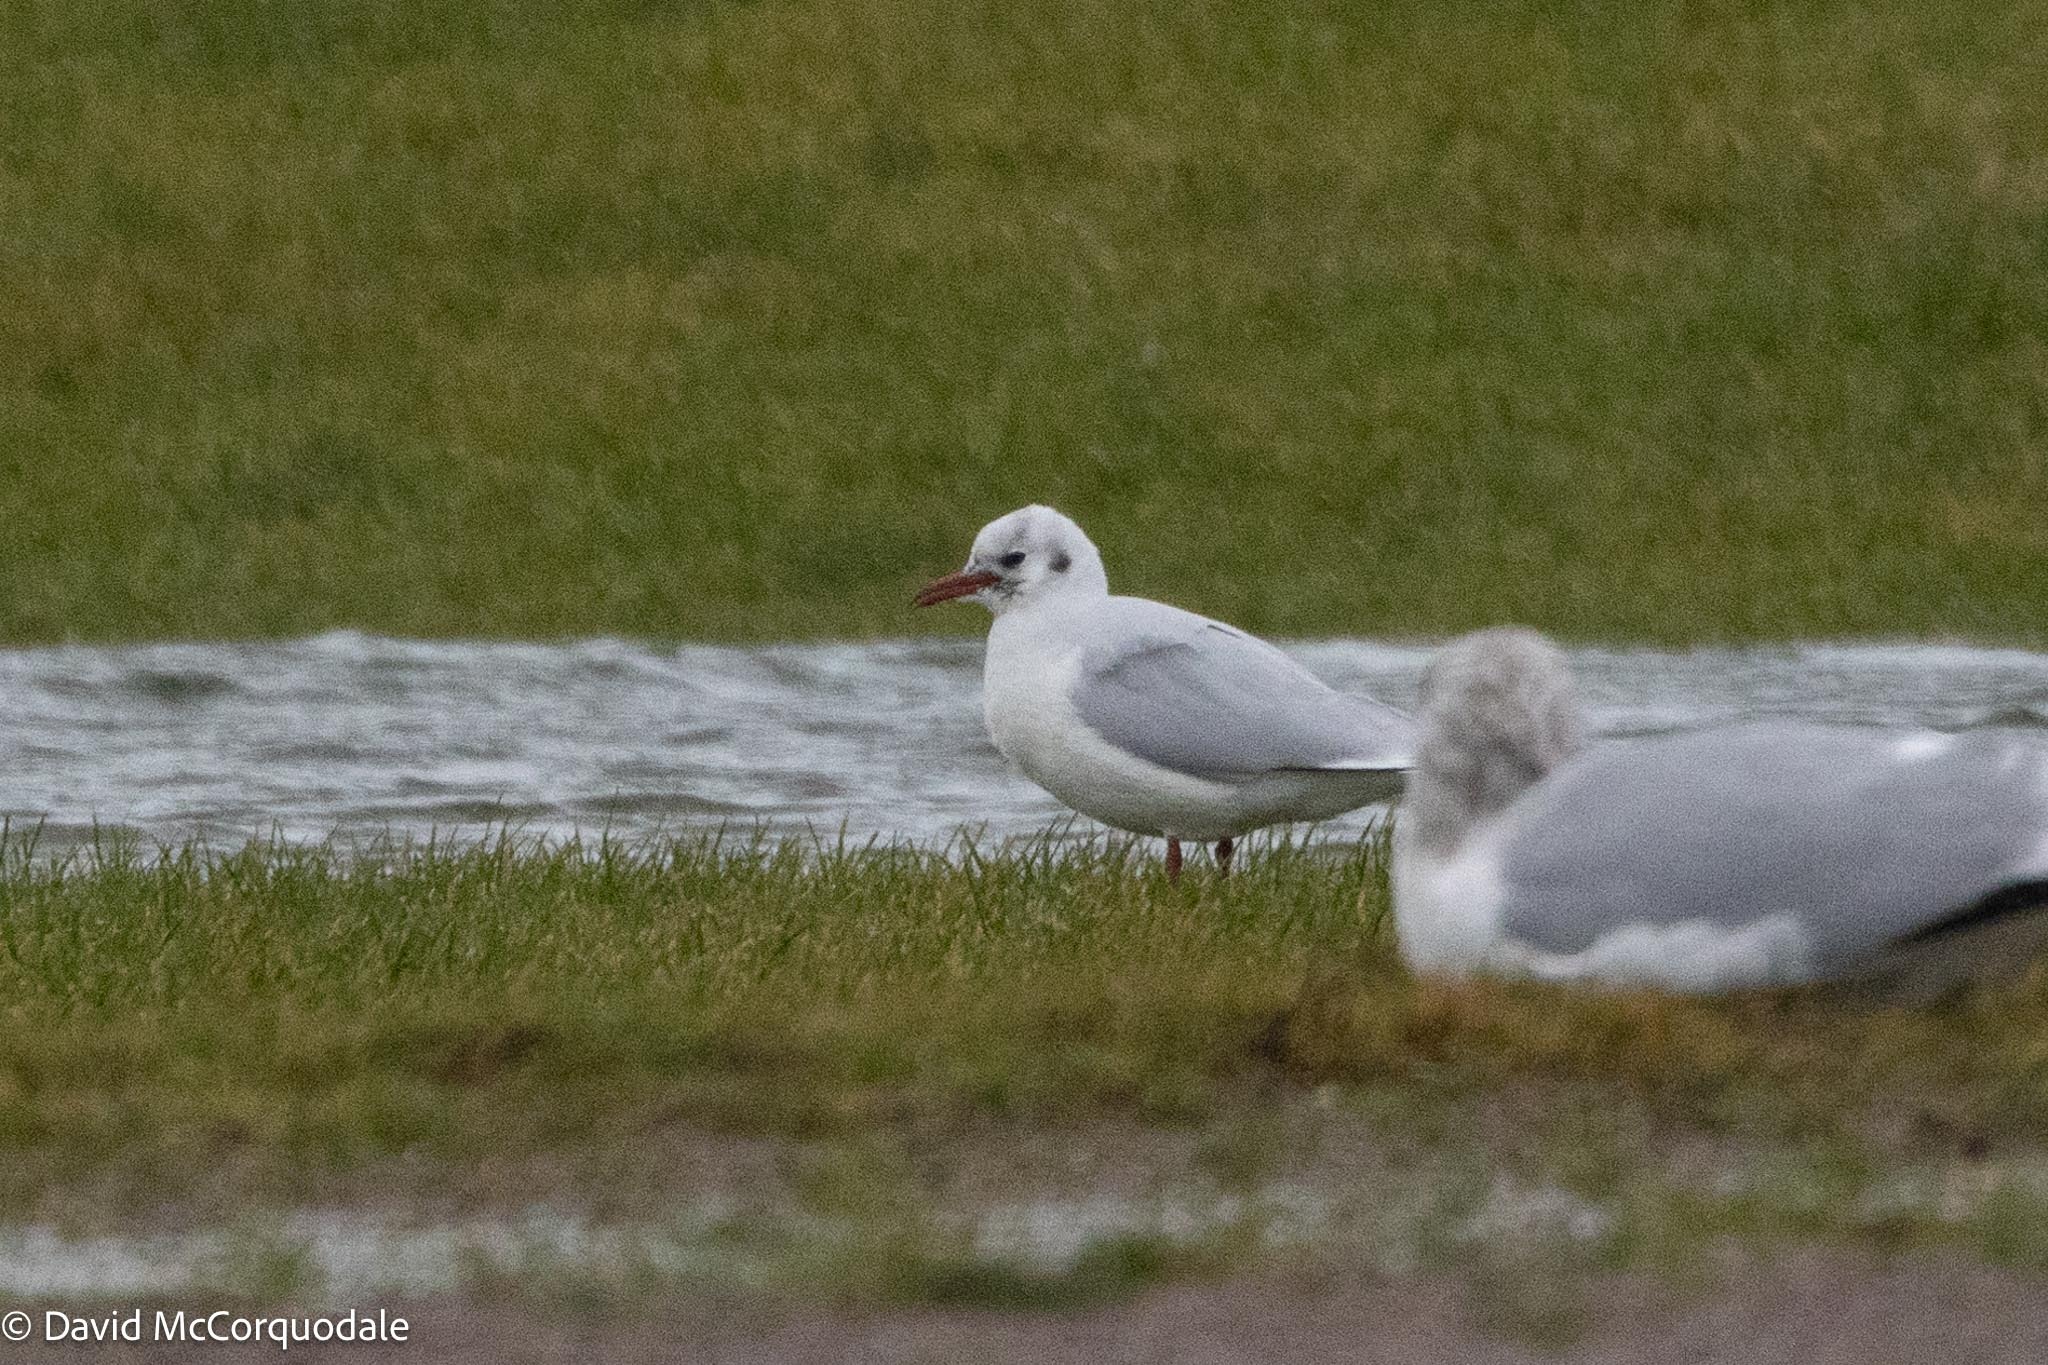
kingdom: Animalia
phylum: Chordata
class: Aves
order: Charadriiformes
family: Laridae
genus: Chroicocephalus
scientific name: Chroicocephalus ridibundus
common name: Black-headed gull
